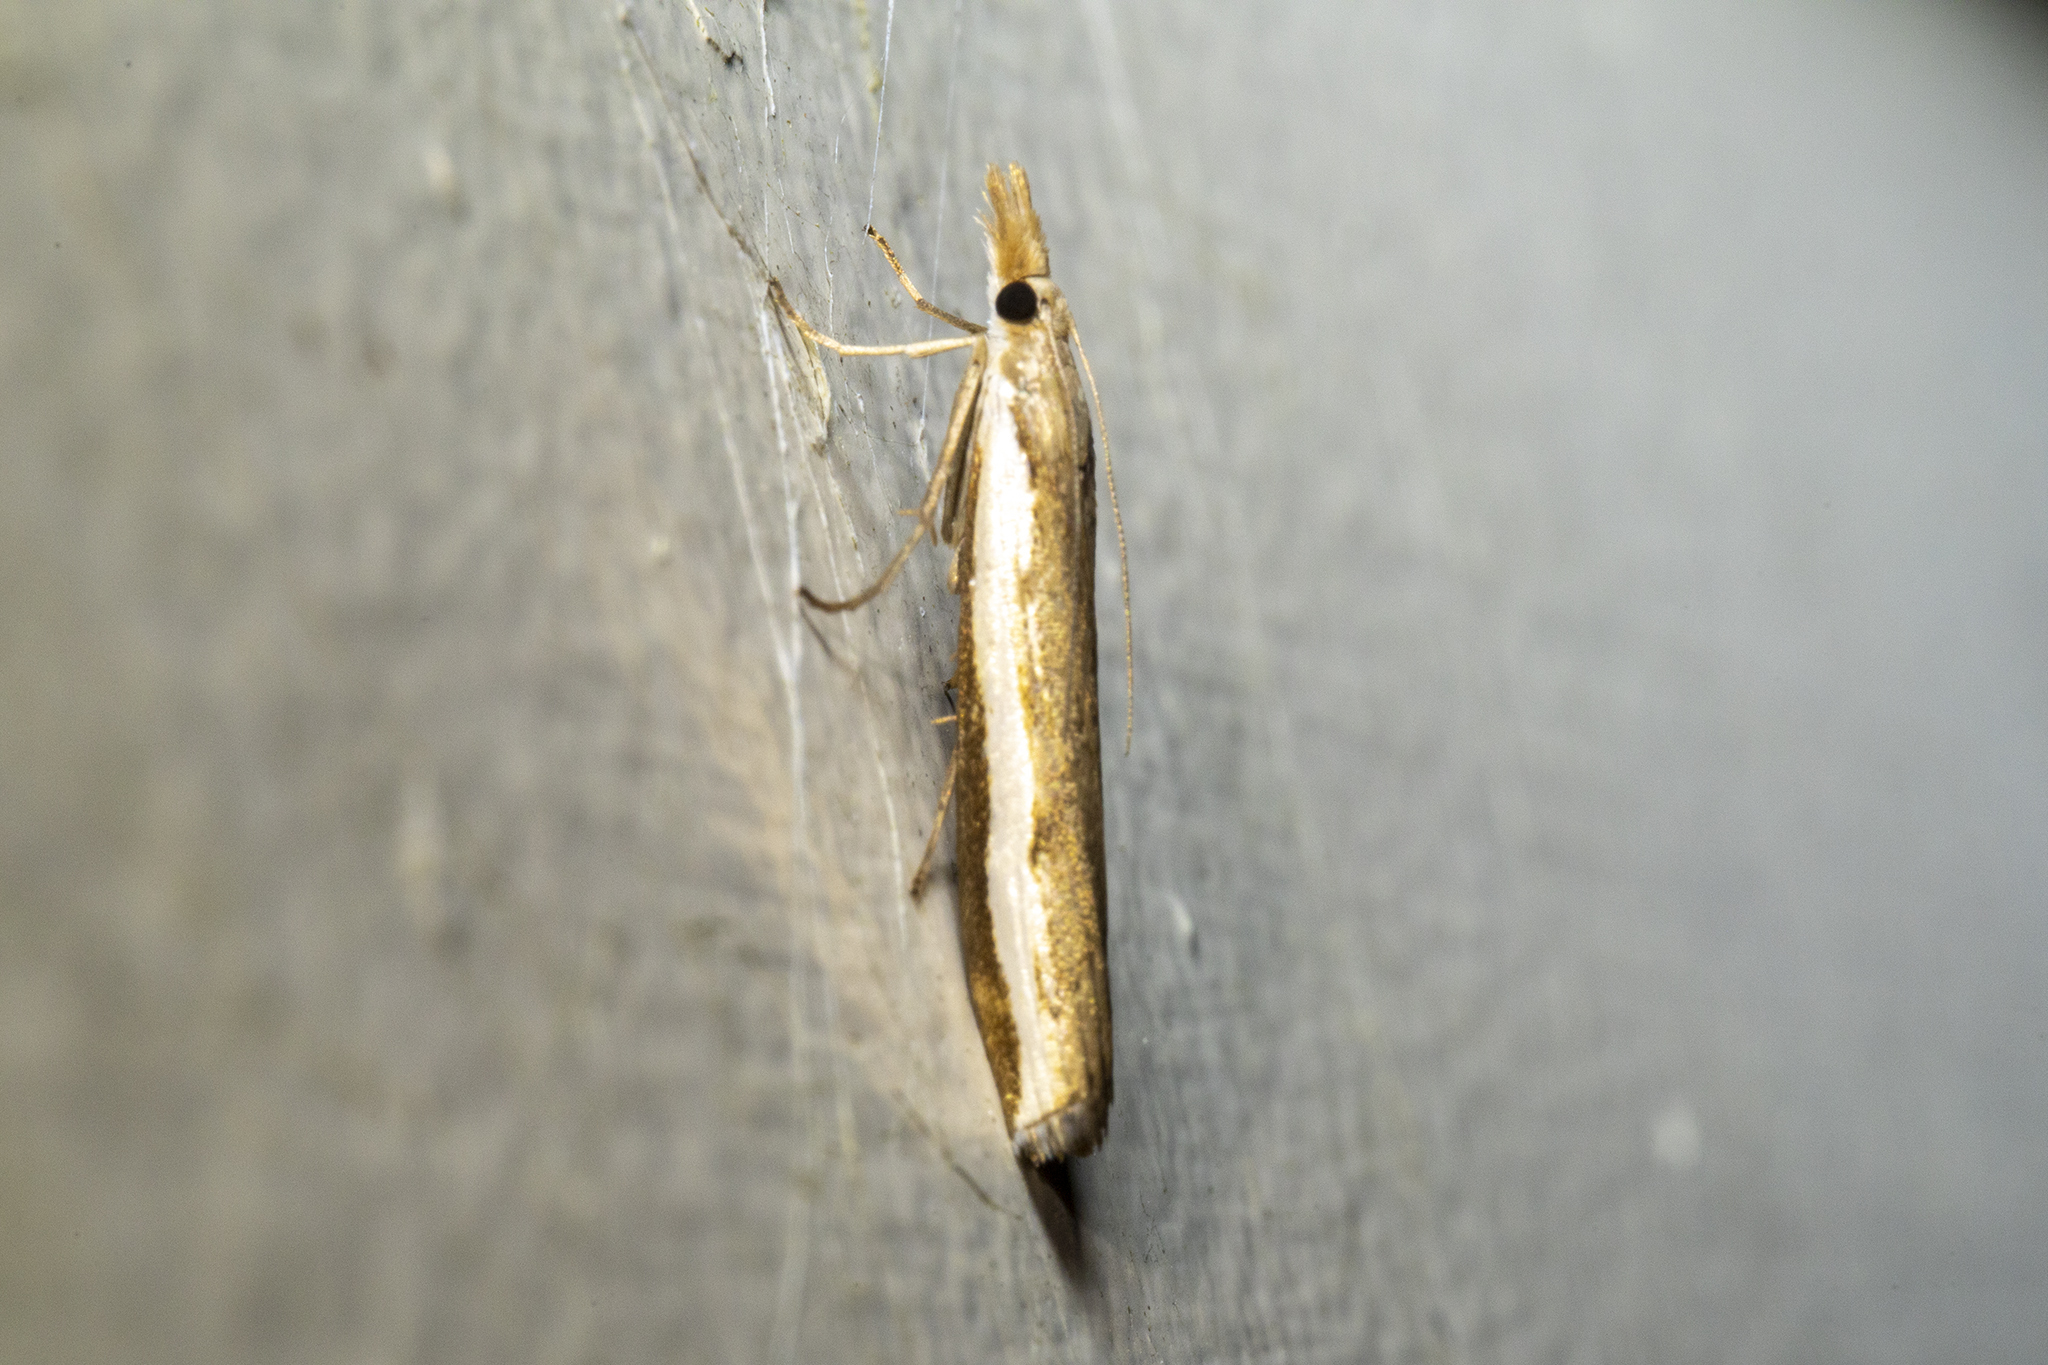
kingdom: Animalia
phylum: Arthropoda
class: Insecta
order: Lepidoptera
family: Crambidae
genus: Orocrambus
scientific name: Orocrambus flexuosellus
